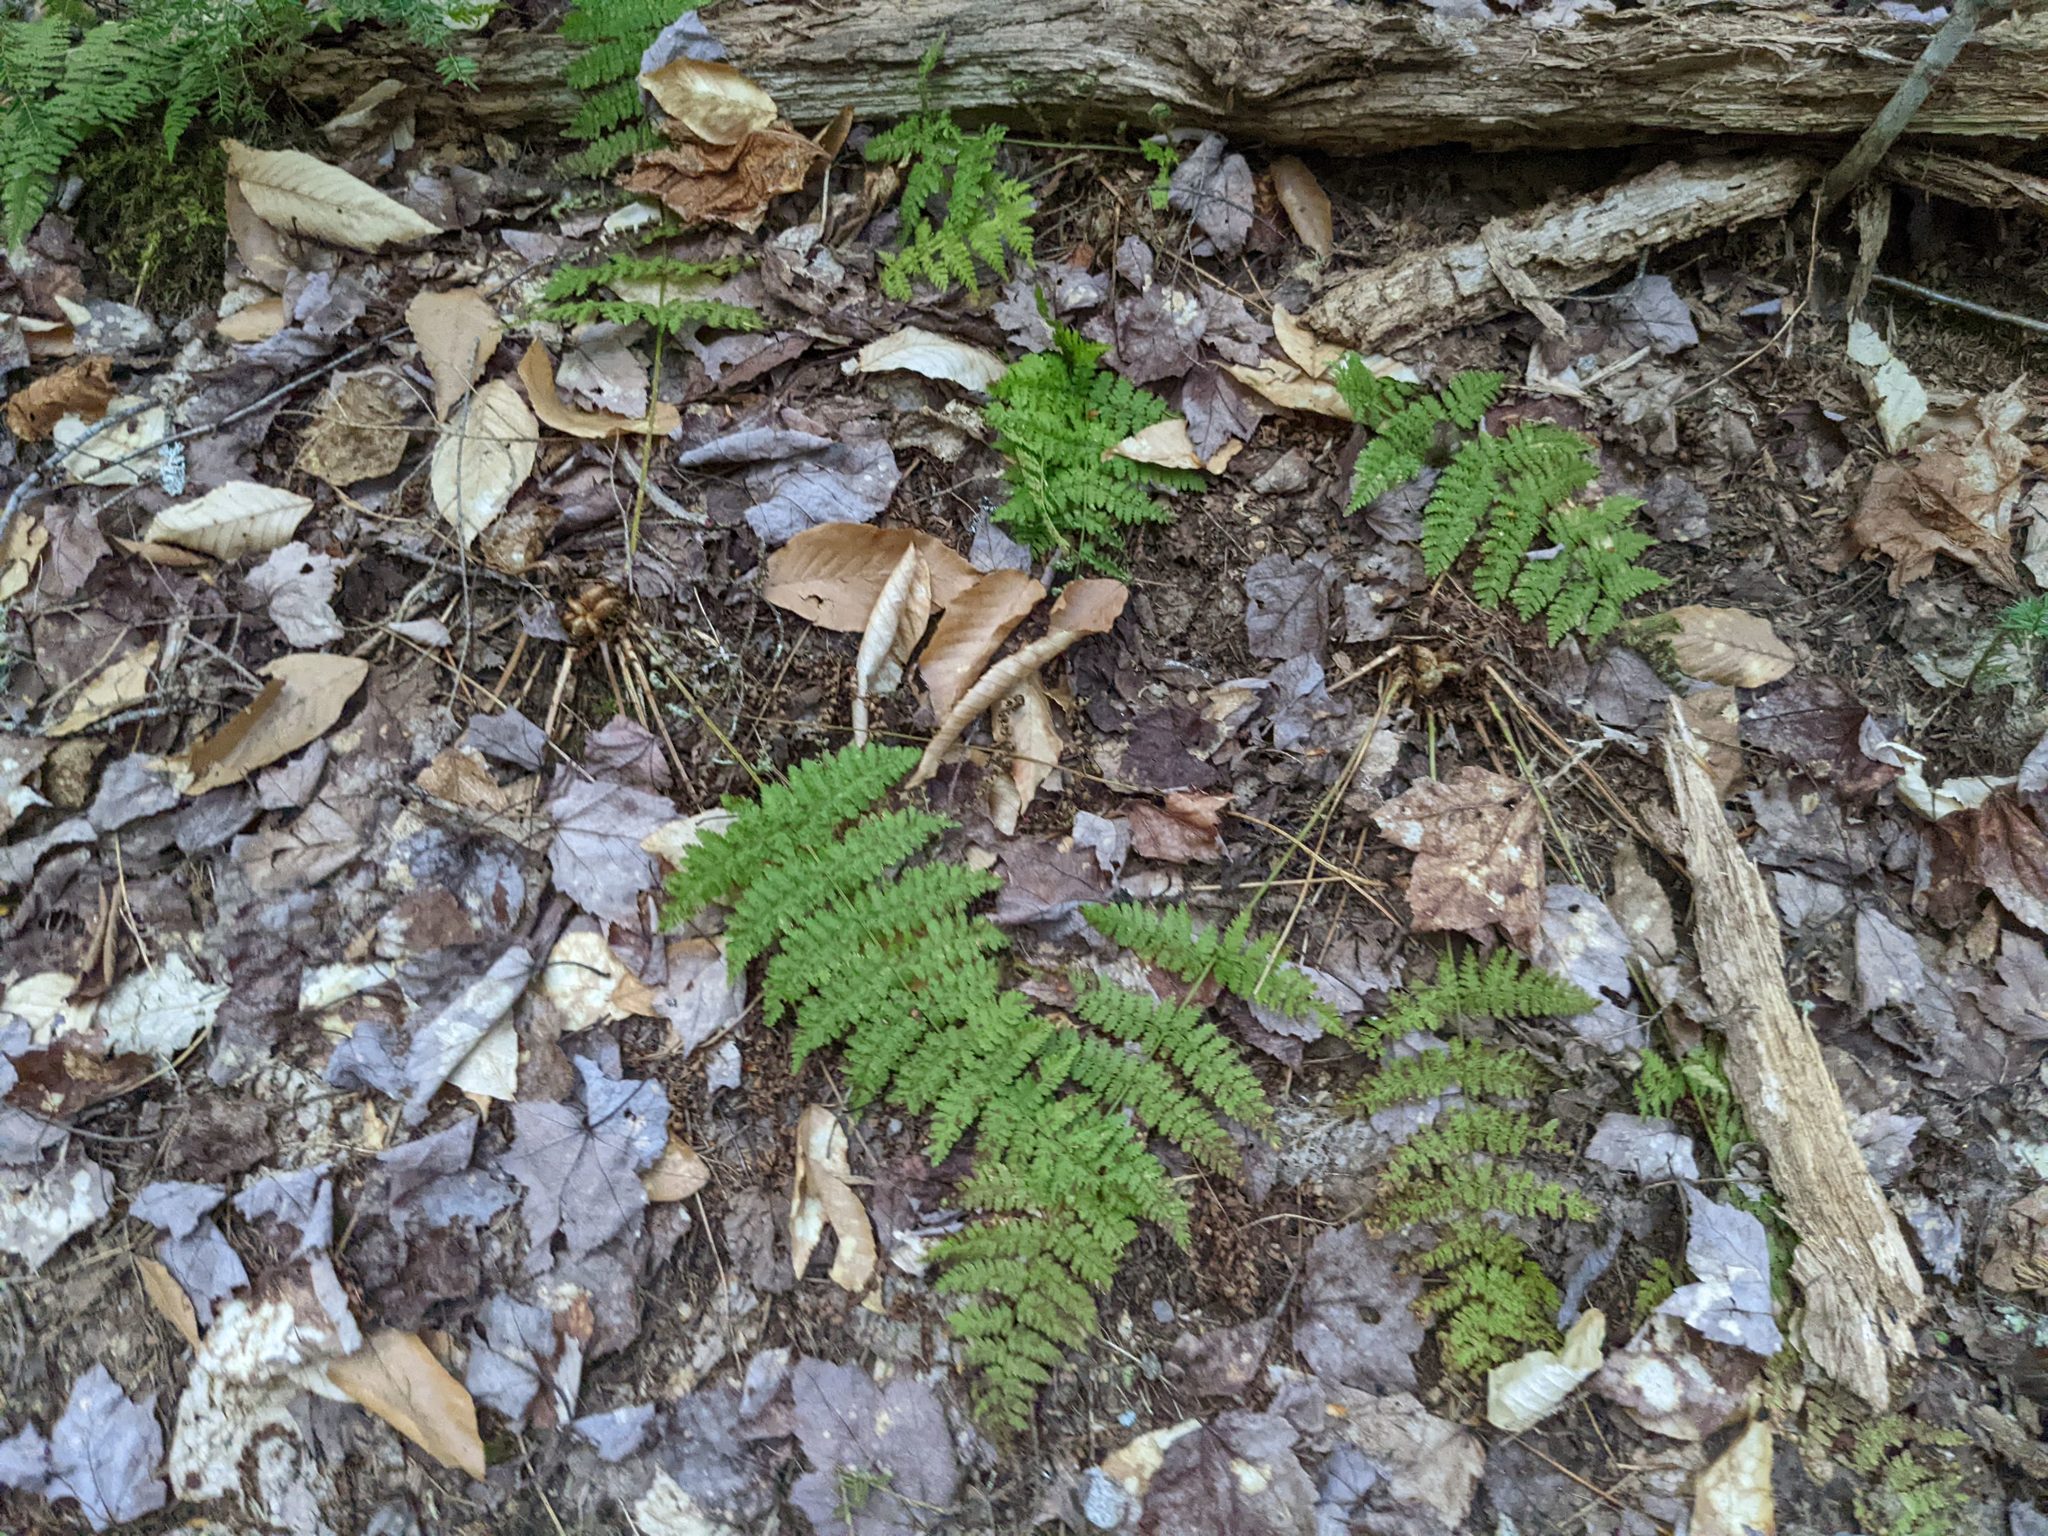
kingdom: Plantae
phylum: Tracheophyta
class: Polypodiopsida
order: Polypodiales
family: Dryopteridaceae
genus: Dryopteris
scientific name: Dryopteris intermedia
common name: Evergreen wood fern
